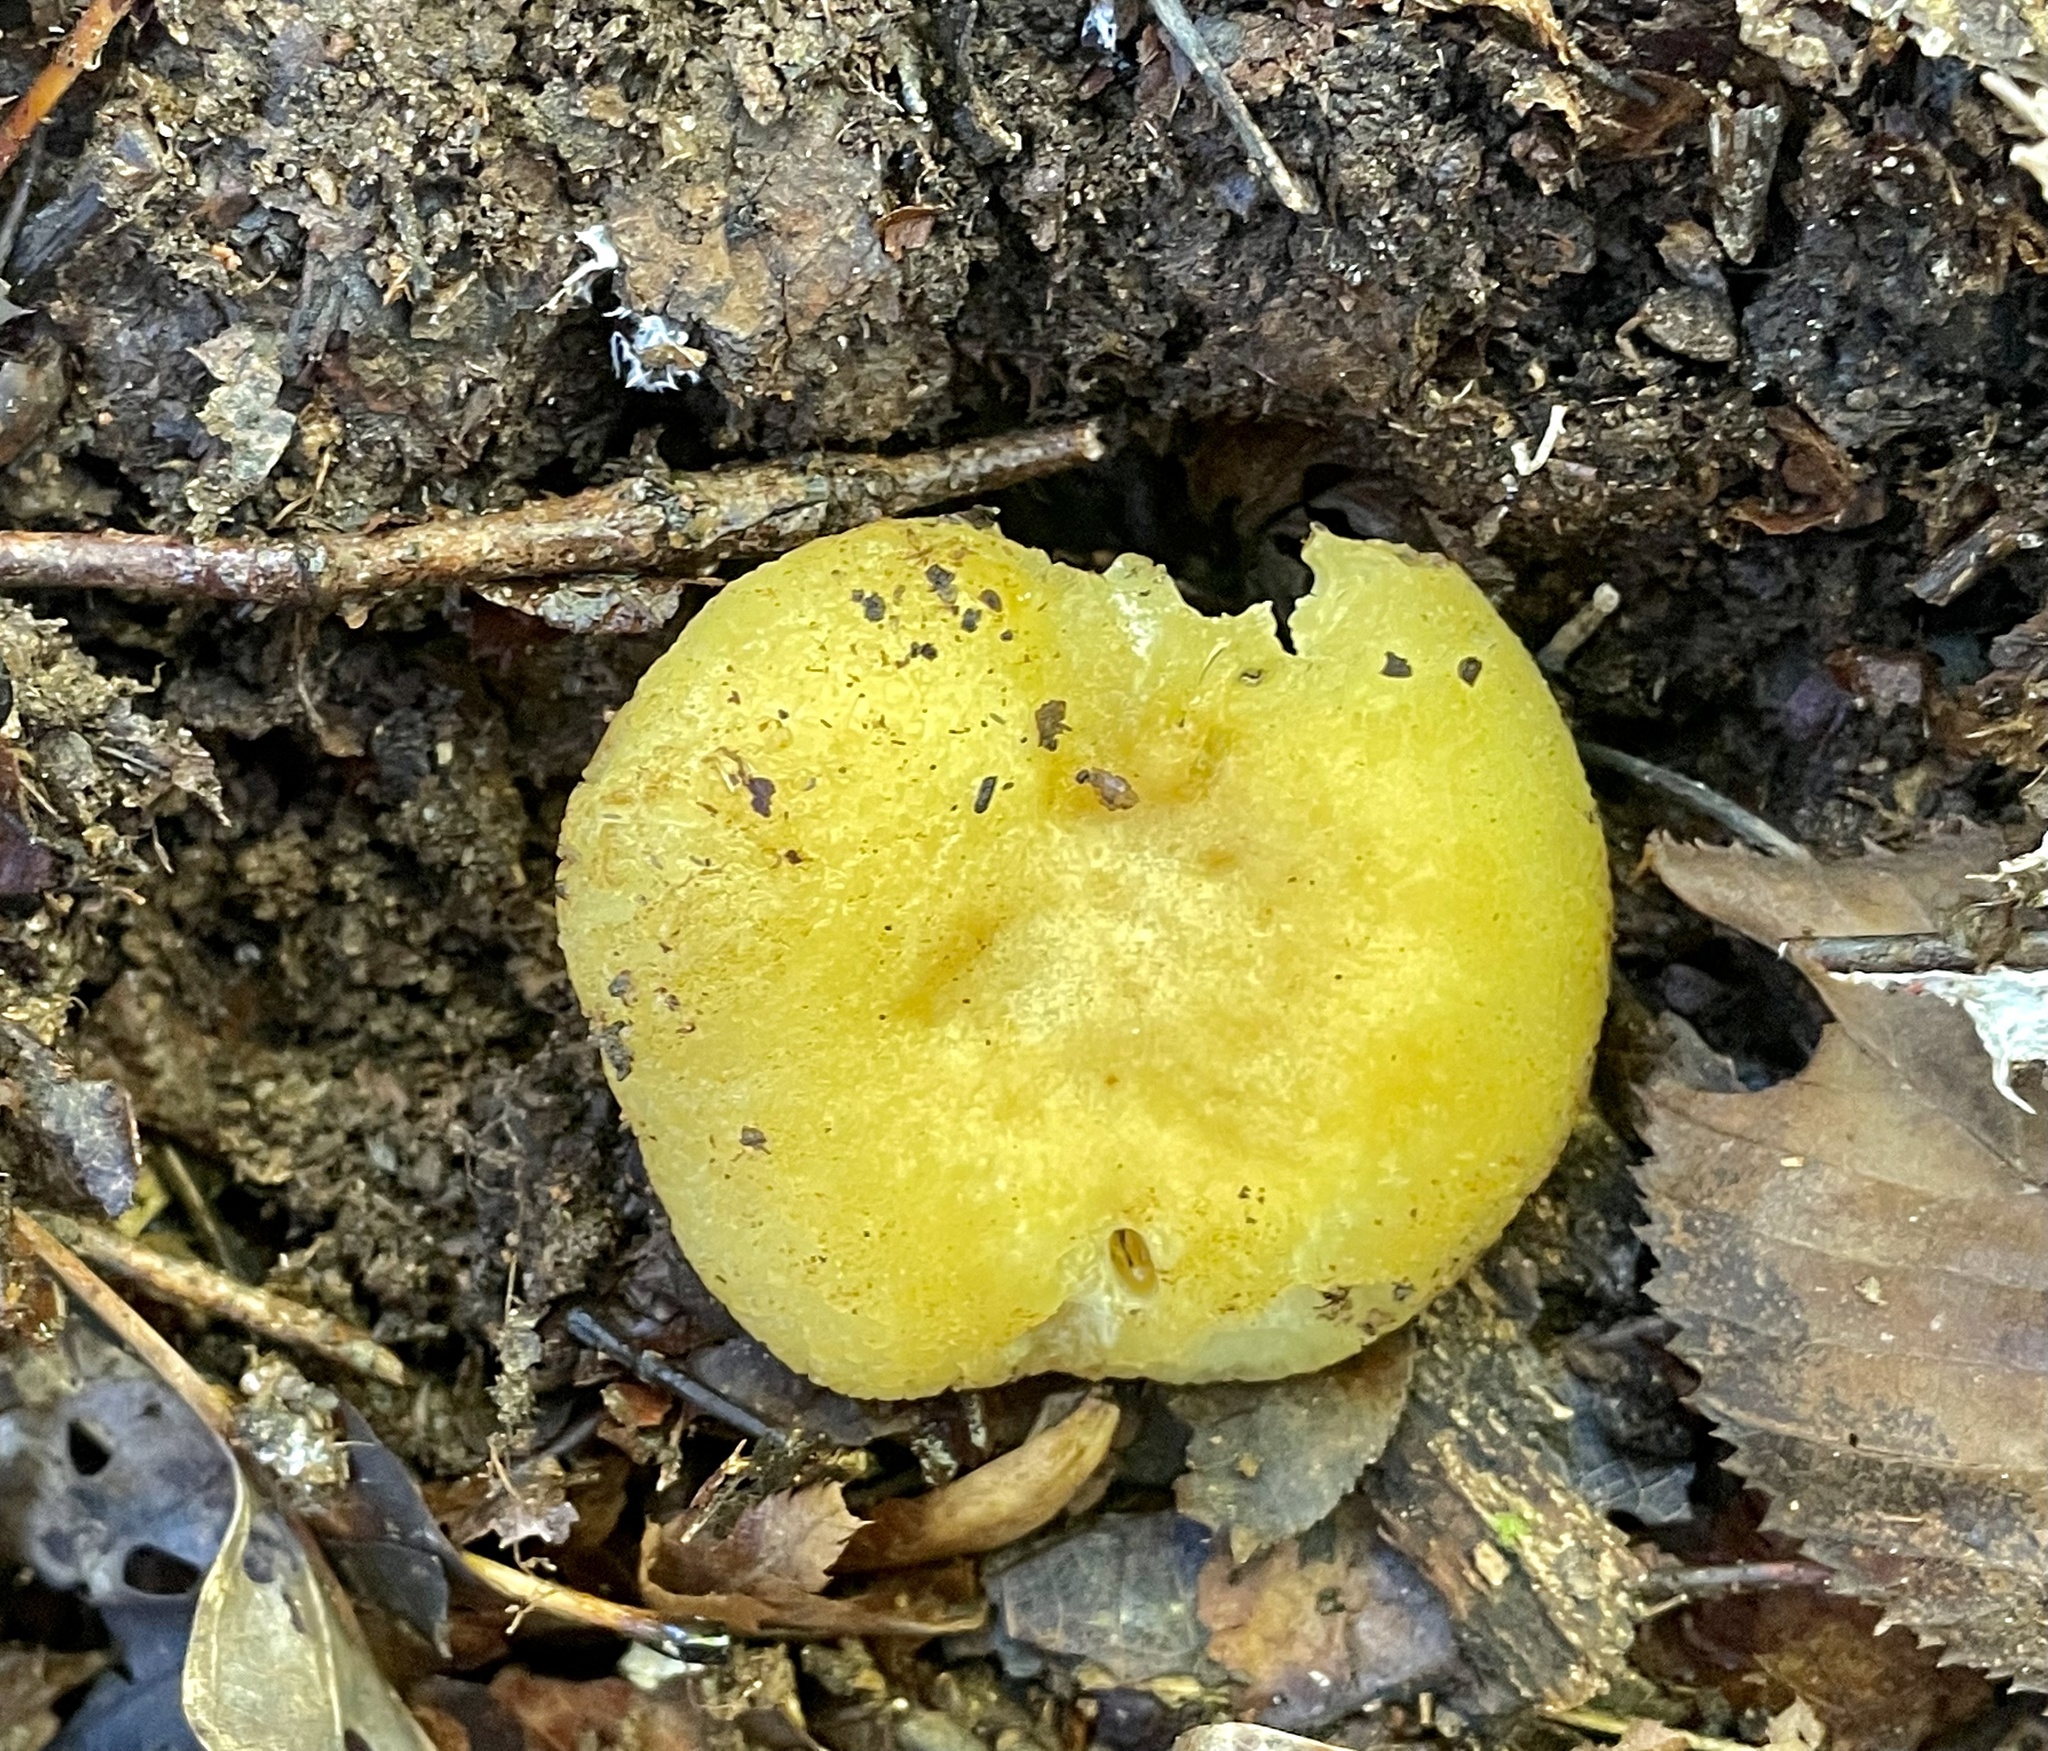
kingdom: Fungi
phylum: Basidiomycota
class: Agaricomycetes
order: Russulales
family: Russulaceae
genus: Russula
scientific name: Russula earlei
